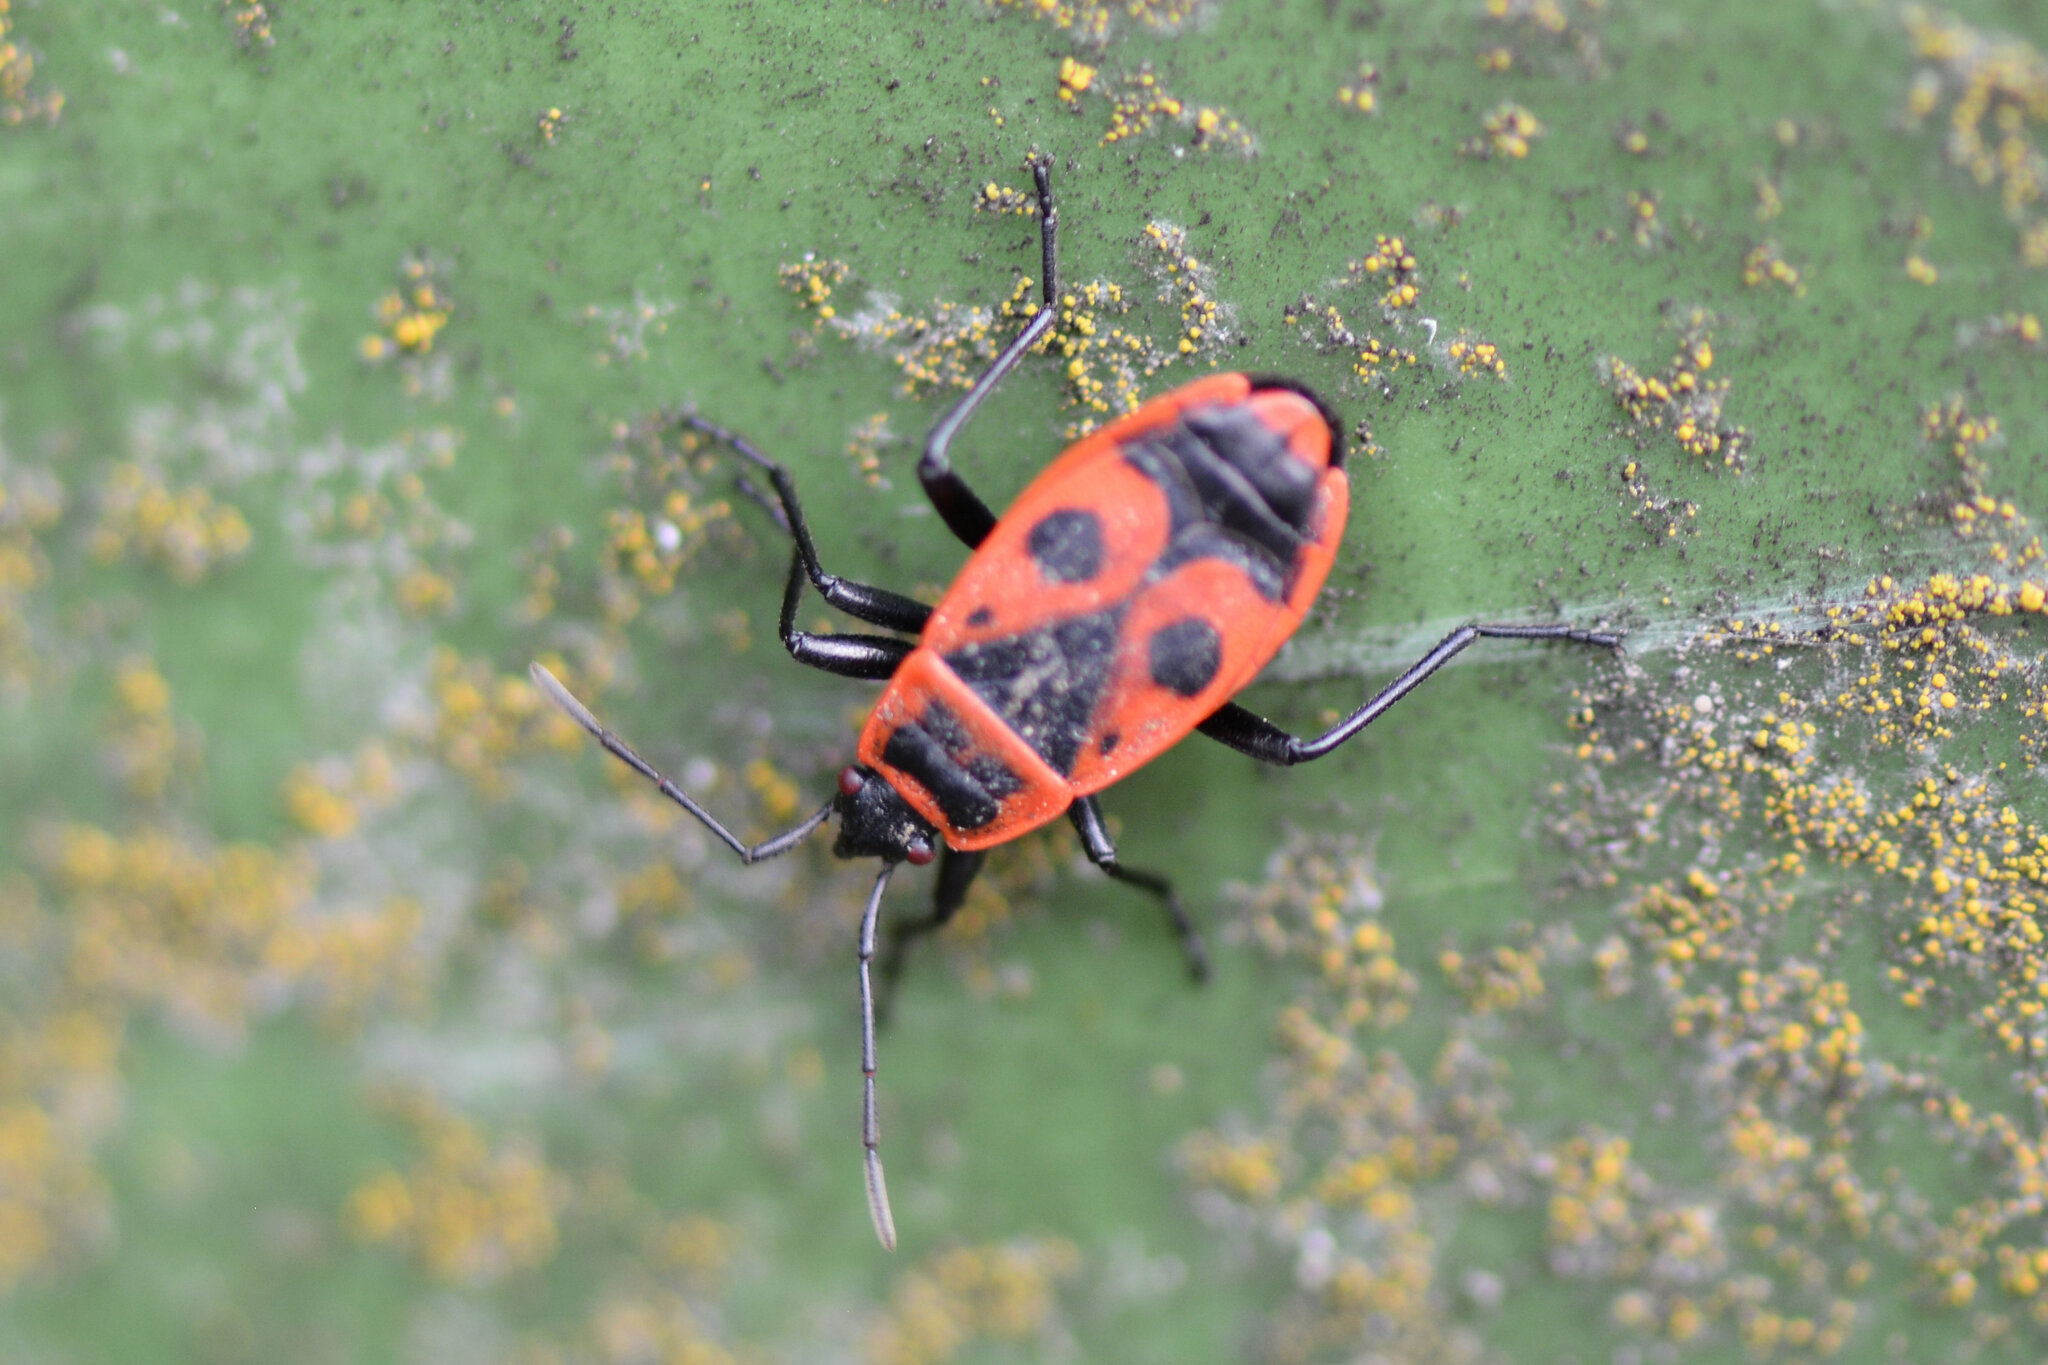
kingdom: Animalia
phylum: Arthropoda
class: Insecta
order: Hemiptera
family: Pyrrhocoridae
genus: Pyrrhocoris
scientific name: Pyrrhocoris apterus
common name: Firebug
